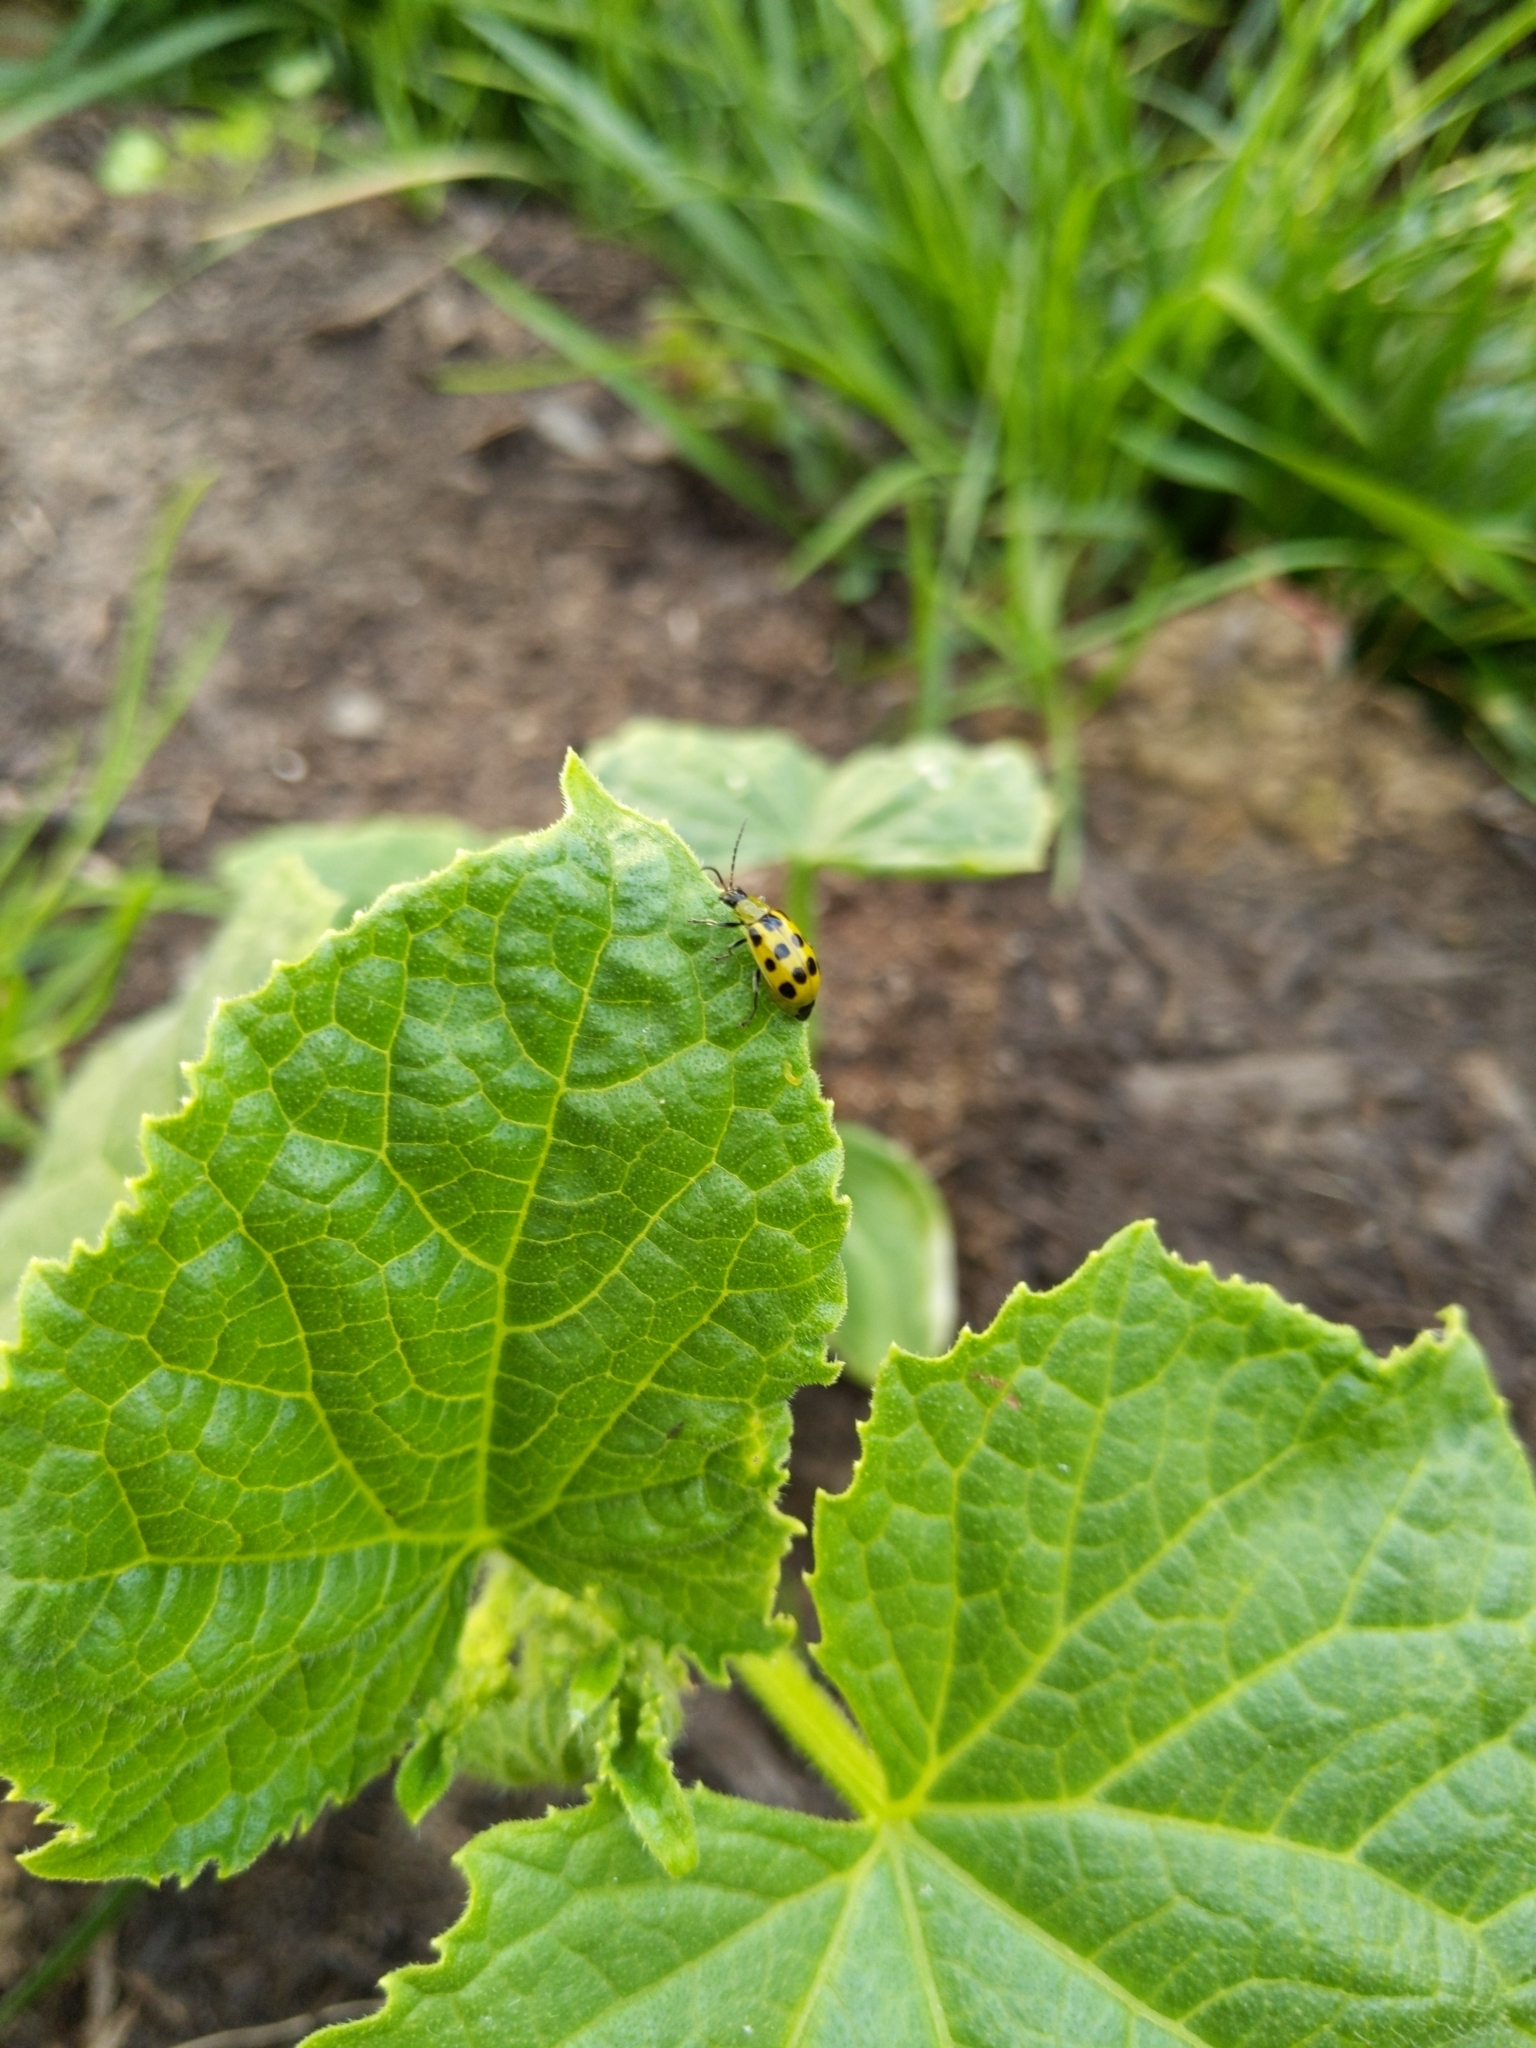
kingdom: Animalia
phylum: Arthropoda
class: Insecta
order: Coleoptera
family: Chrysomelidae
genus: Diabrotica
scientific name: Diabrotica undecimpunctata
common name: Spotted cucumber beetle
